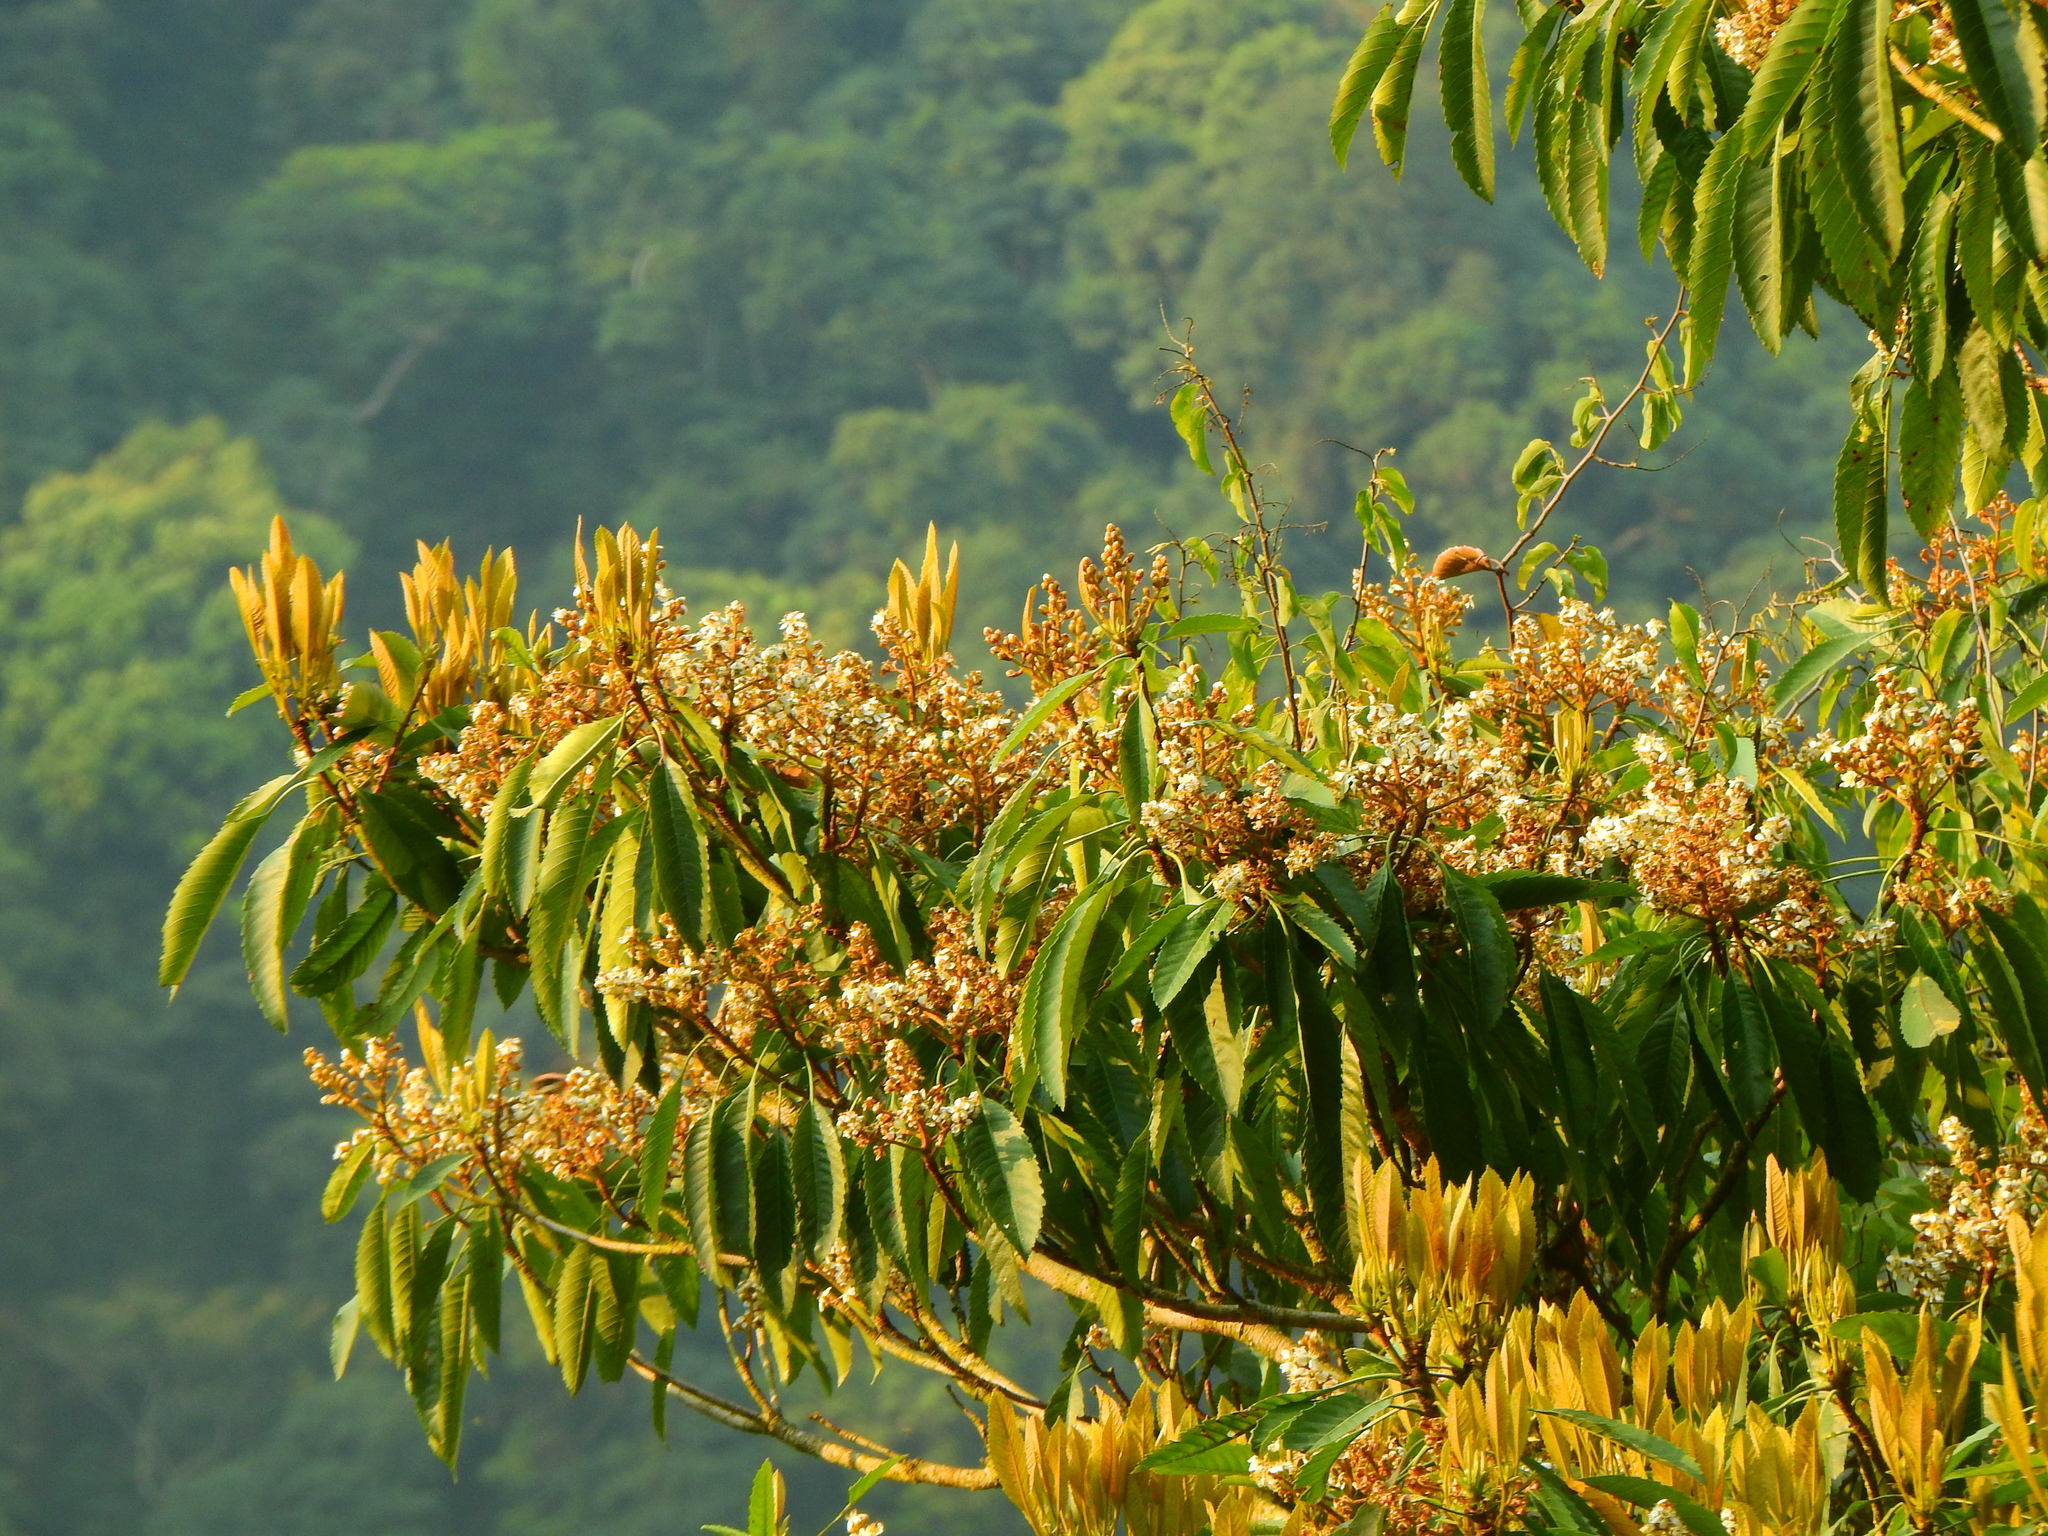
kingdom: Plantae
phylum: Tracheophyta
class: Magnoliopsida
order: Rosales
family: Rosaceae
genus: Rhaphiolepis
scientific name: Rhaphiolepis deflexa
